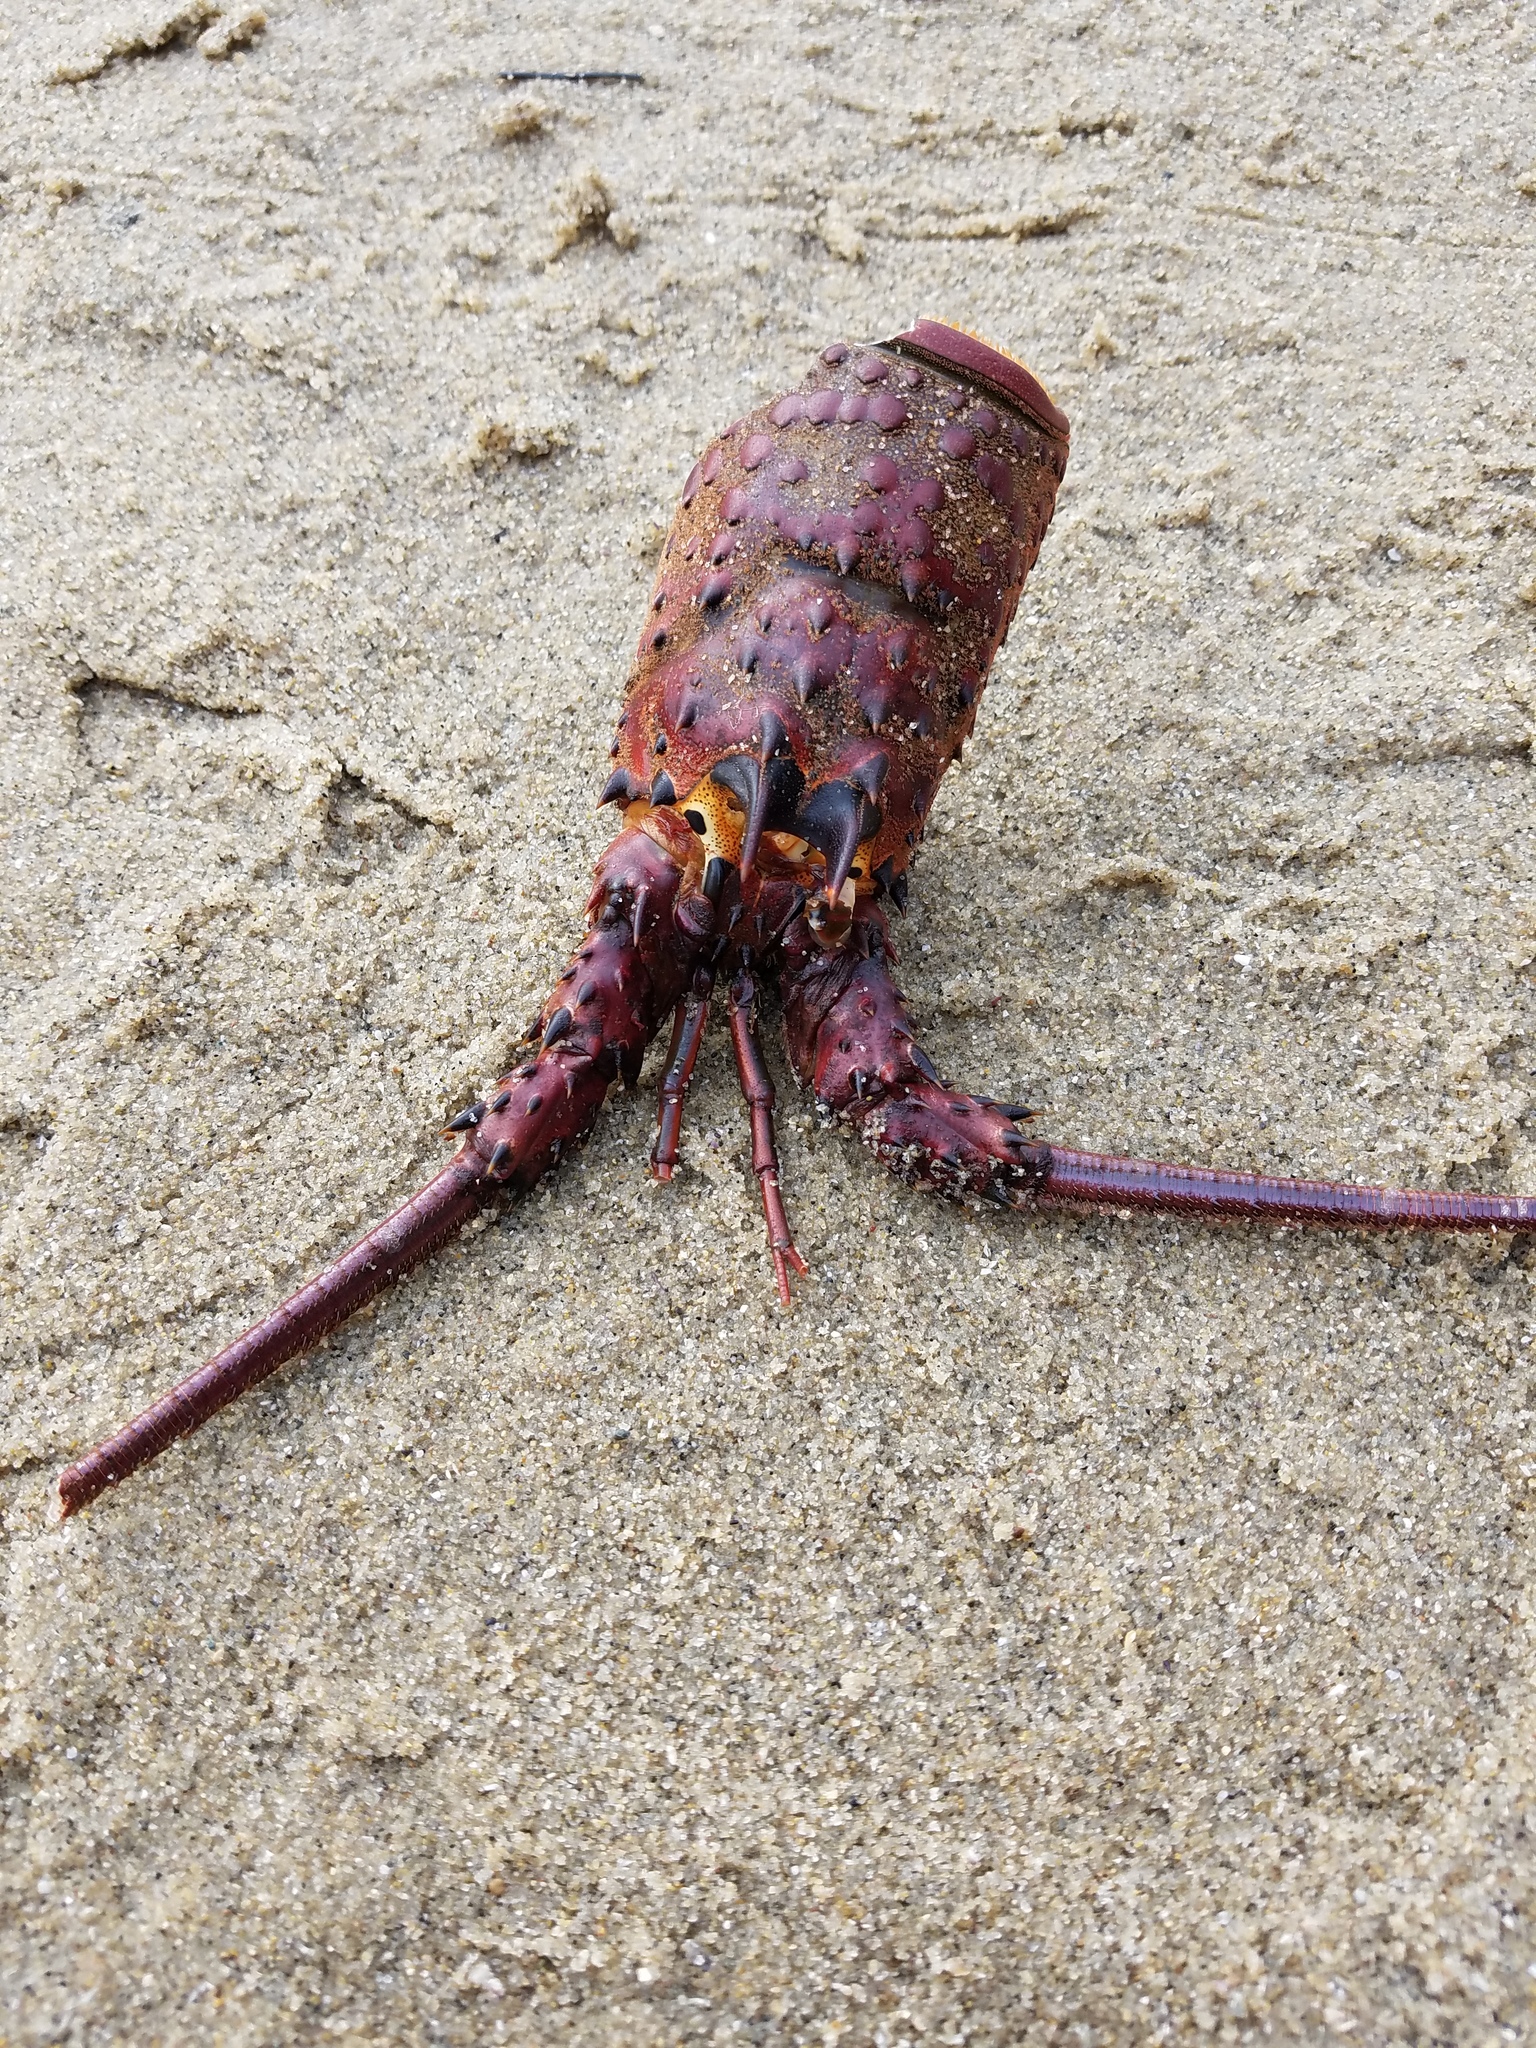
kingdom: Animalia
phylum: Arthropoda
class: Malacostraca
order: Decapoda
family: Palinuridae
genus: Panulirus
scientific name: Panulirus interruptus
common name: California spiny lobster
